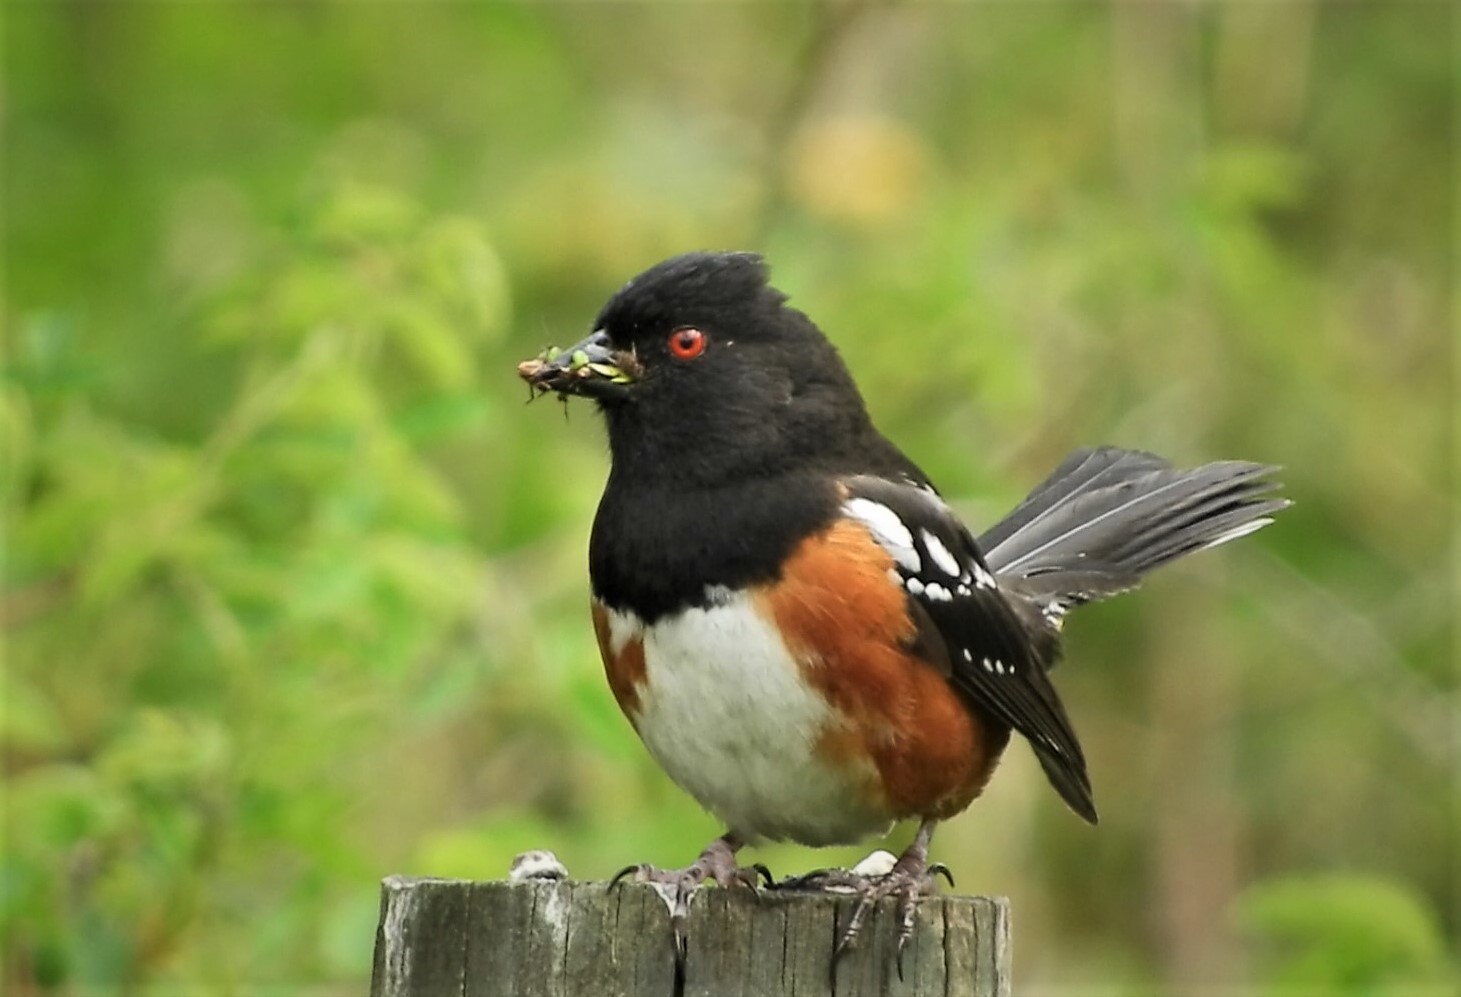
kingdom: Animalia
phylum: Chordata
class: Aves
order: Passeriformes
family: Passerellidae
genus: Pipilo
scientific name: Pipilo maculatus
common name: Spotted towhee
